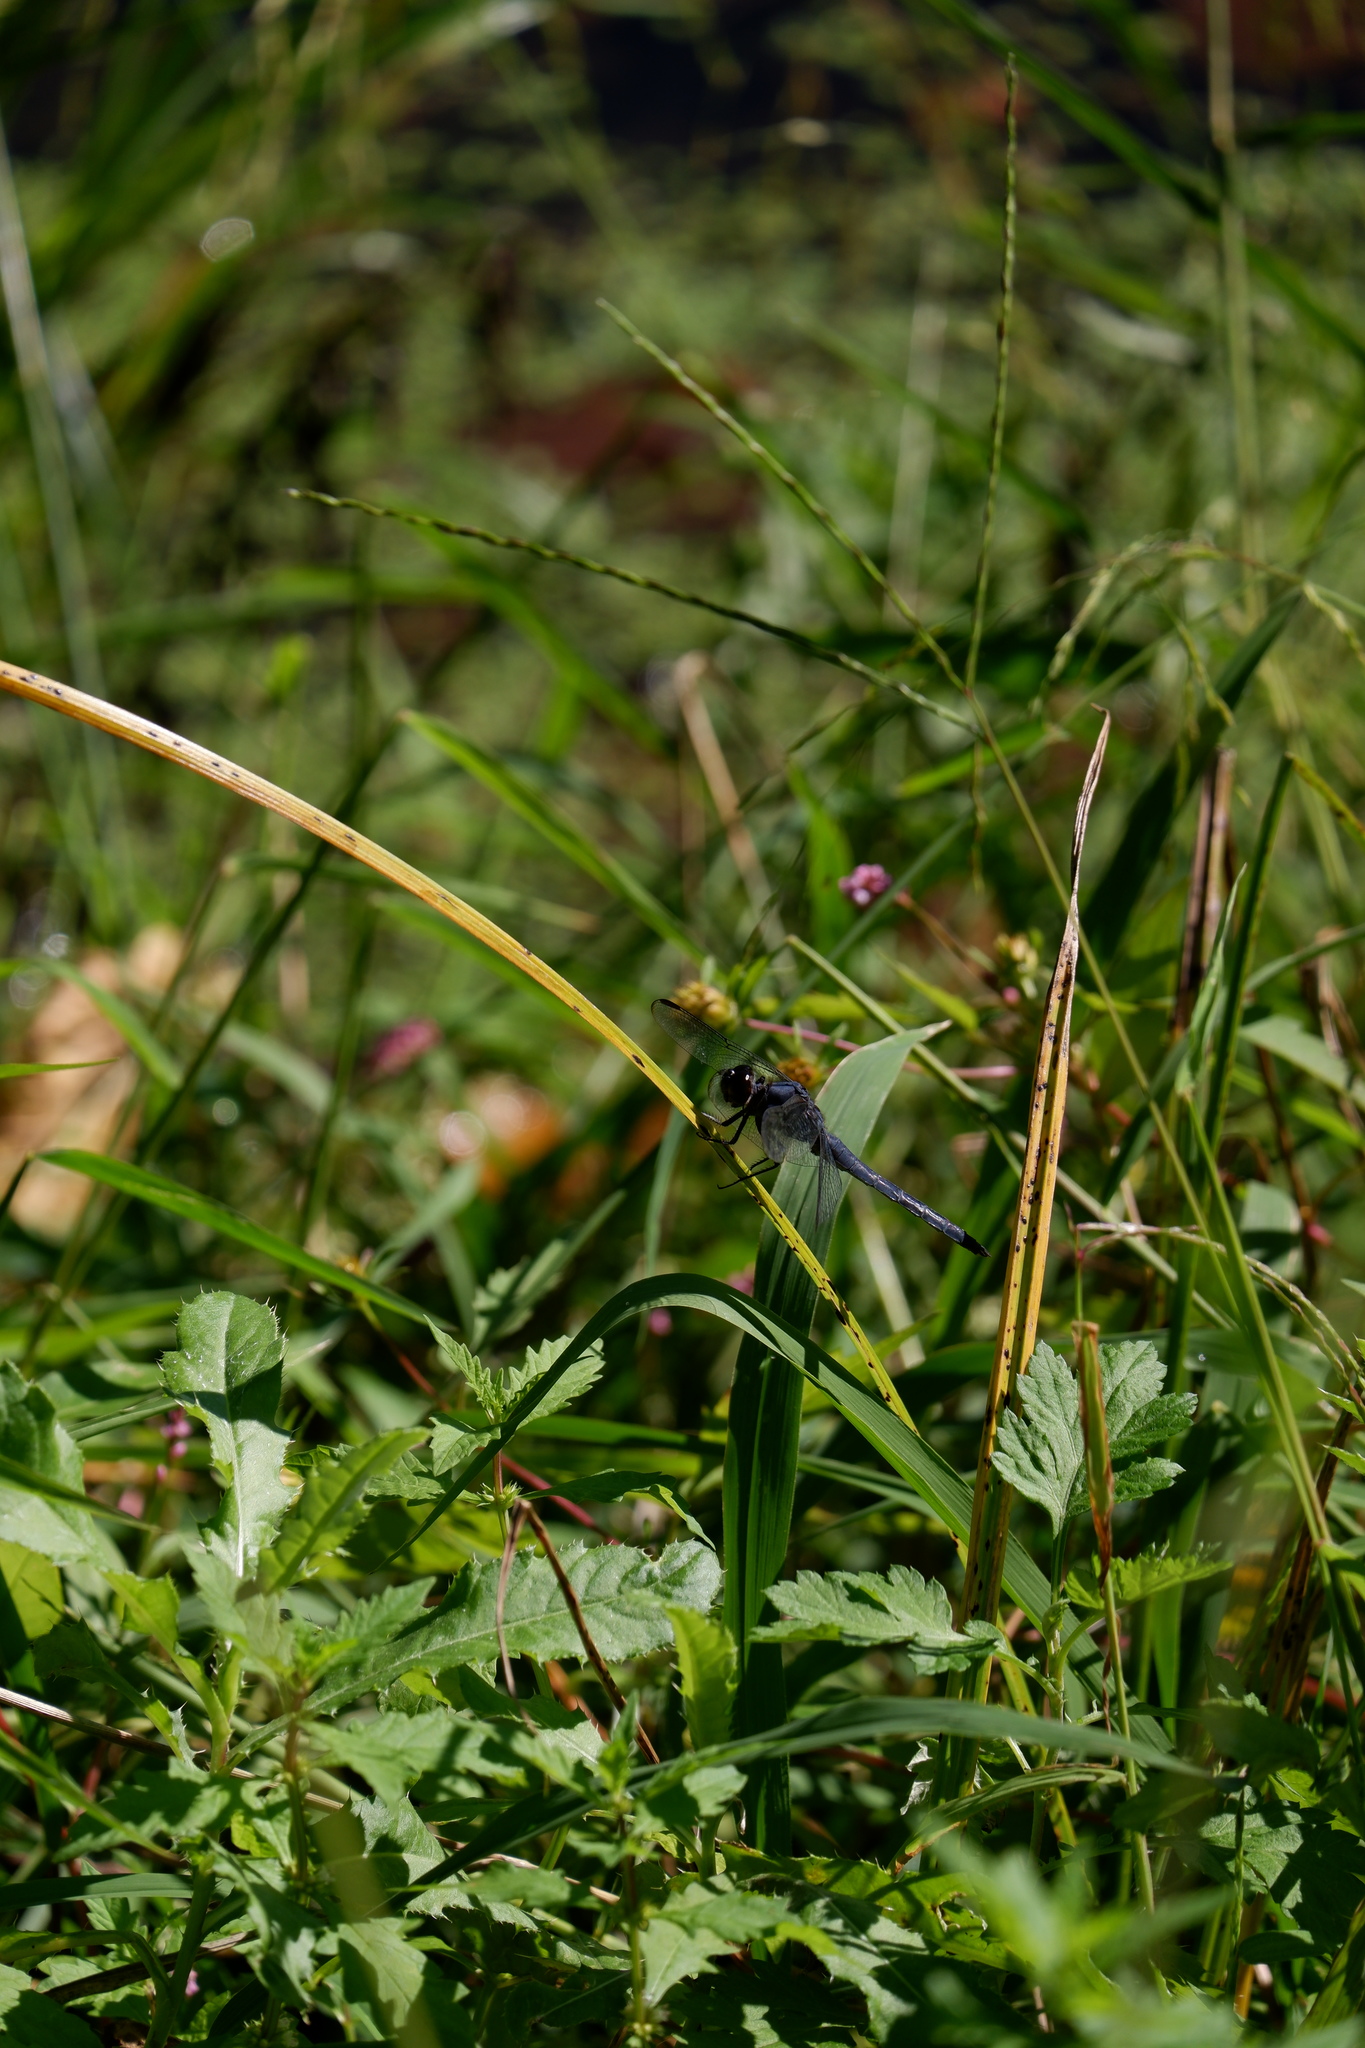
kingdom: Animalia
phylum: Arthropoda
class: Insecta
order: Odonata
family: Libellulidae
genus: Libellula
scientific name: Libellula incesta
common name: Slaty skimmer
